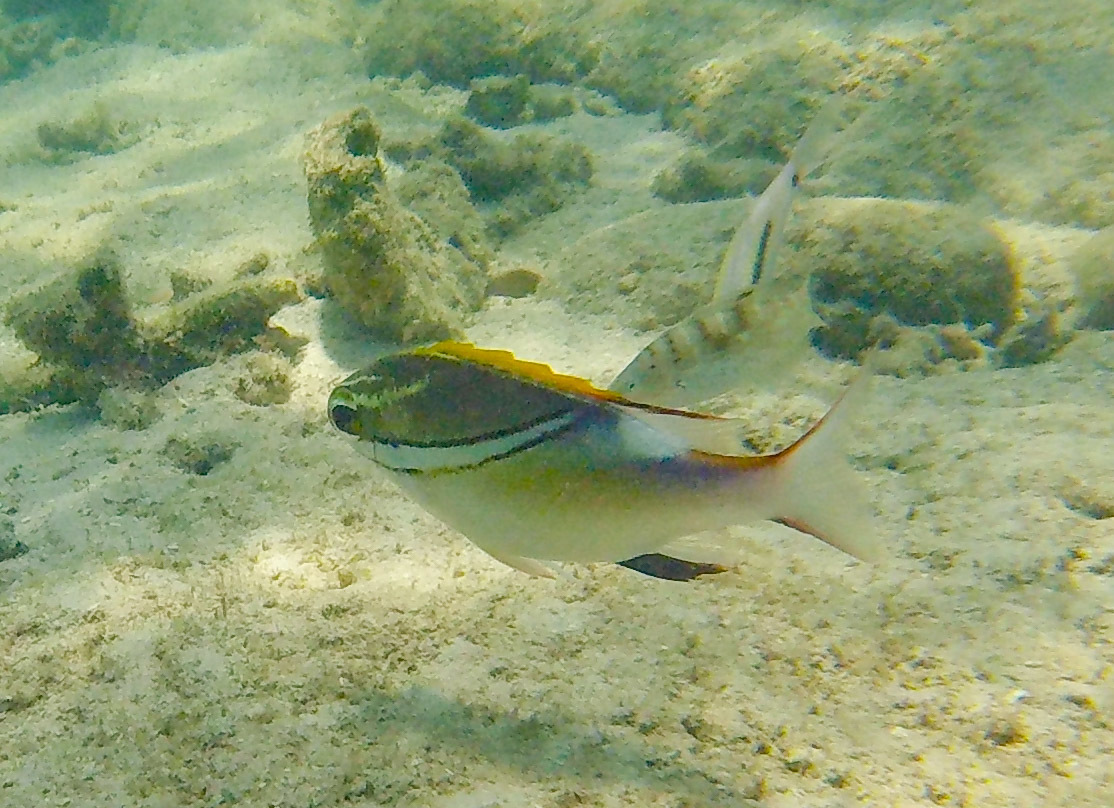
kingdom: Animalia
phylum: Chordata
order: Perciformes
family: Nemipteridae
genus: Scolopsis
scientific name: Scolopsis bilineata
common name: Two-lined monocle bream
